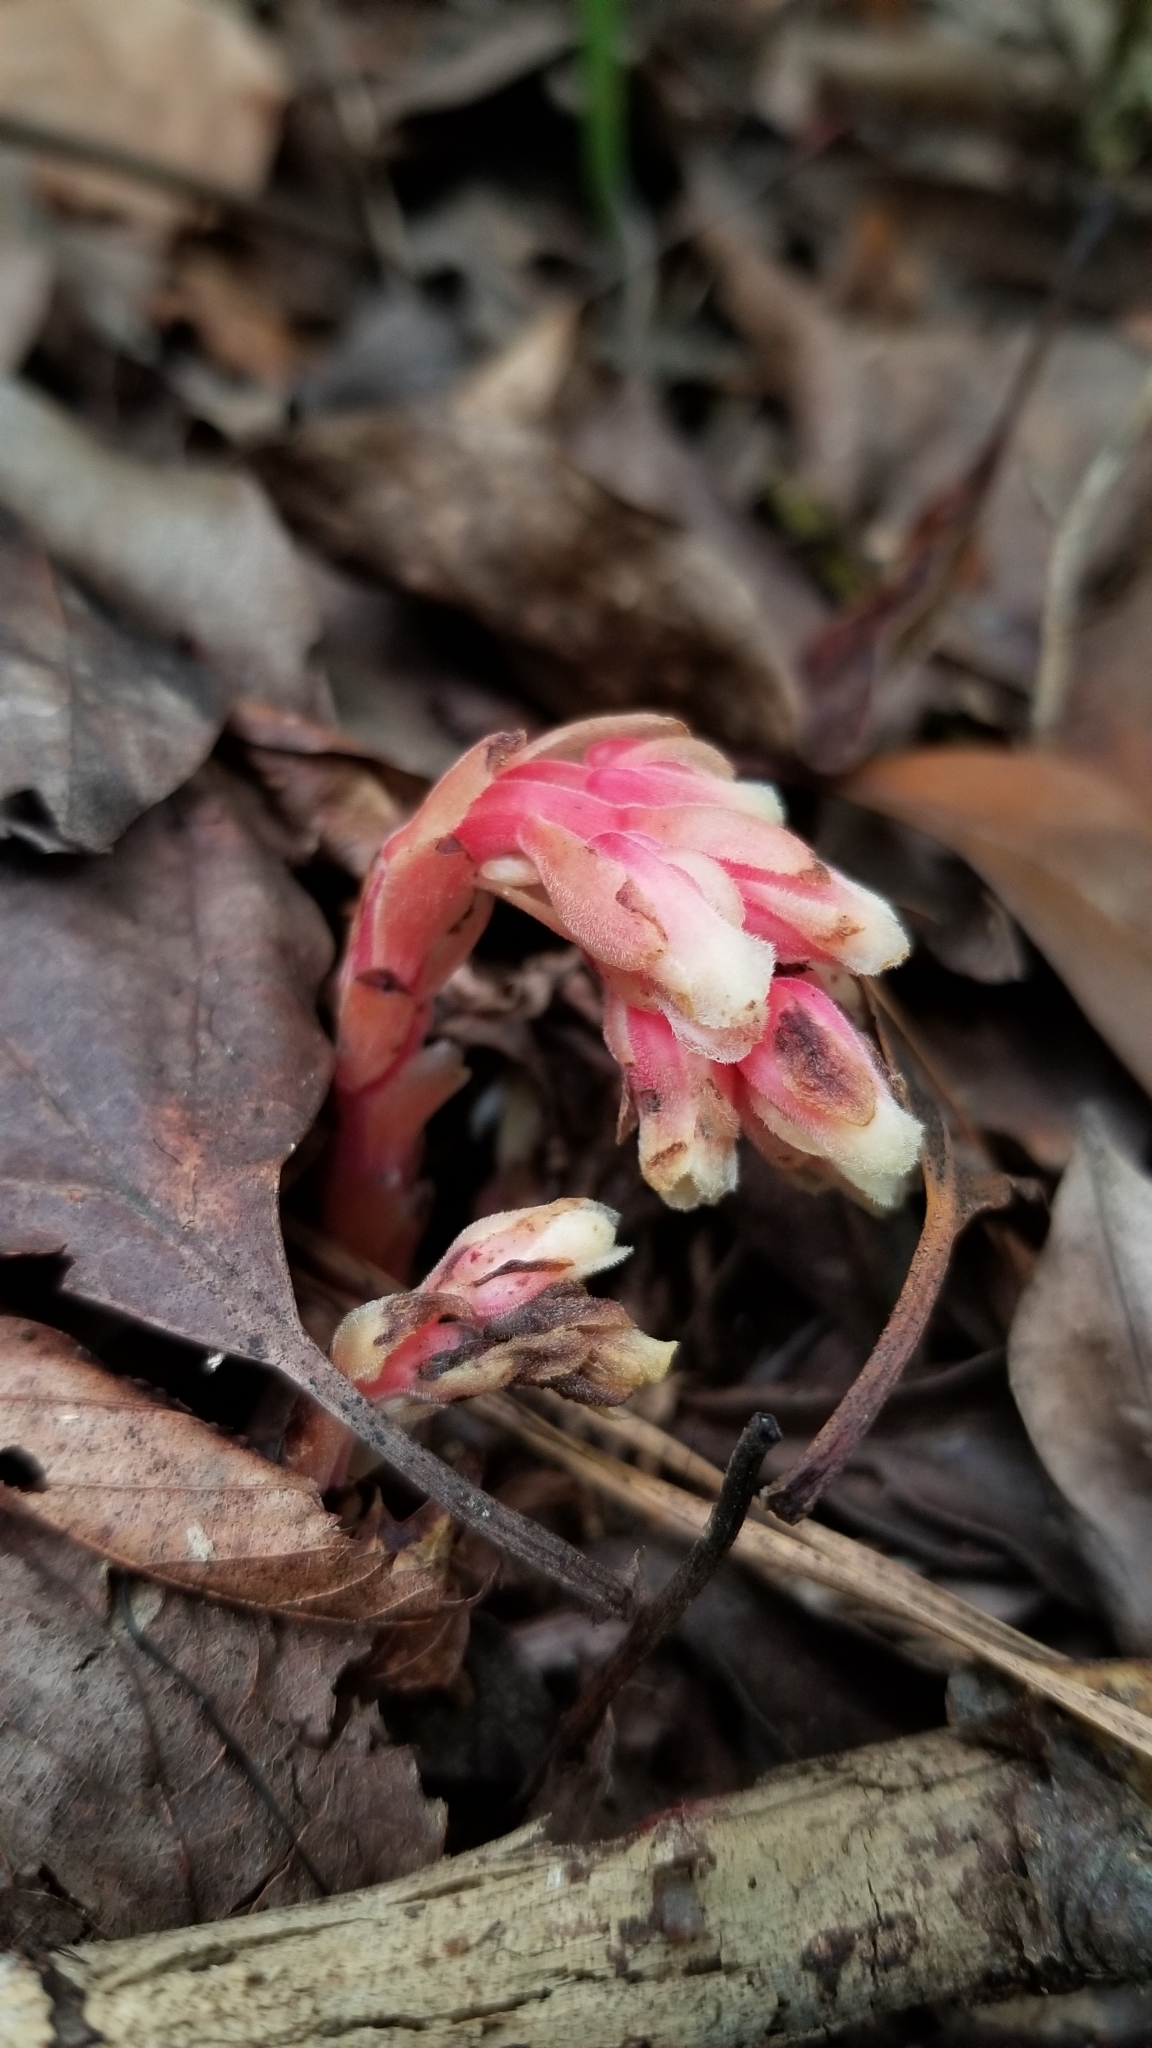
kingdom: Plantae
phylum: Tracheophyta
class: Magnoliopsida
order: Ericales
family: Ericaceae
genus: Hypopitys
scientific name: Hypopitys monotropa
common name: Yellow bird's-nest
